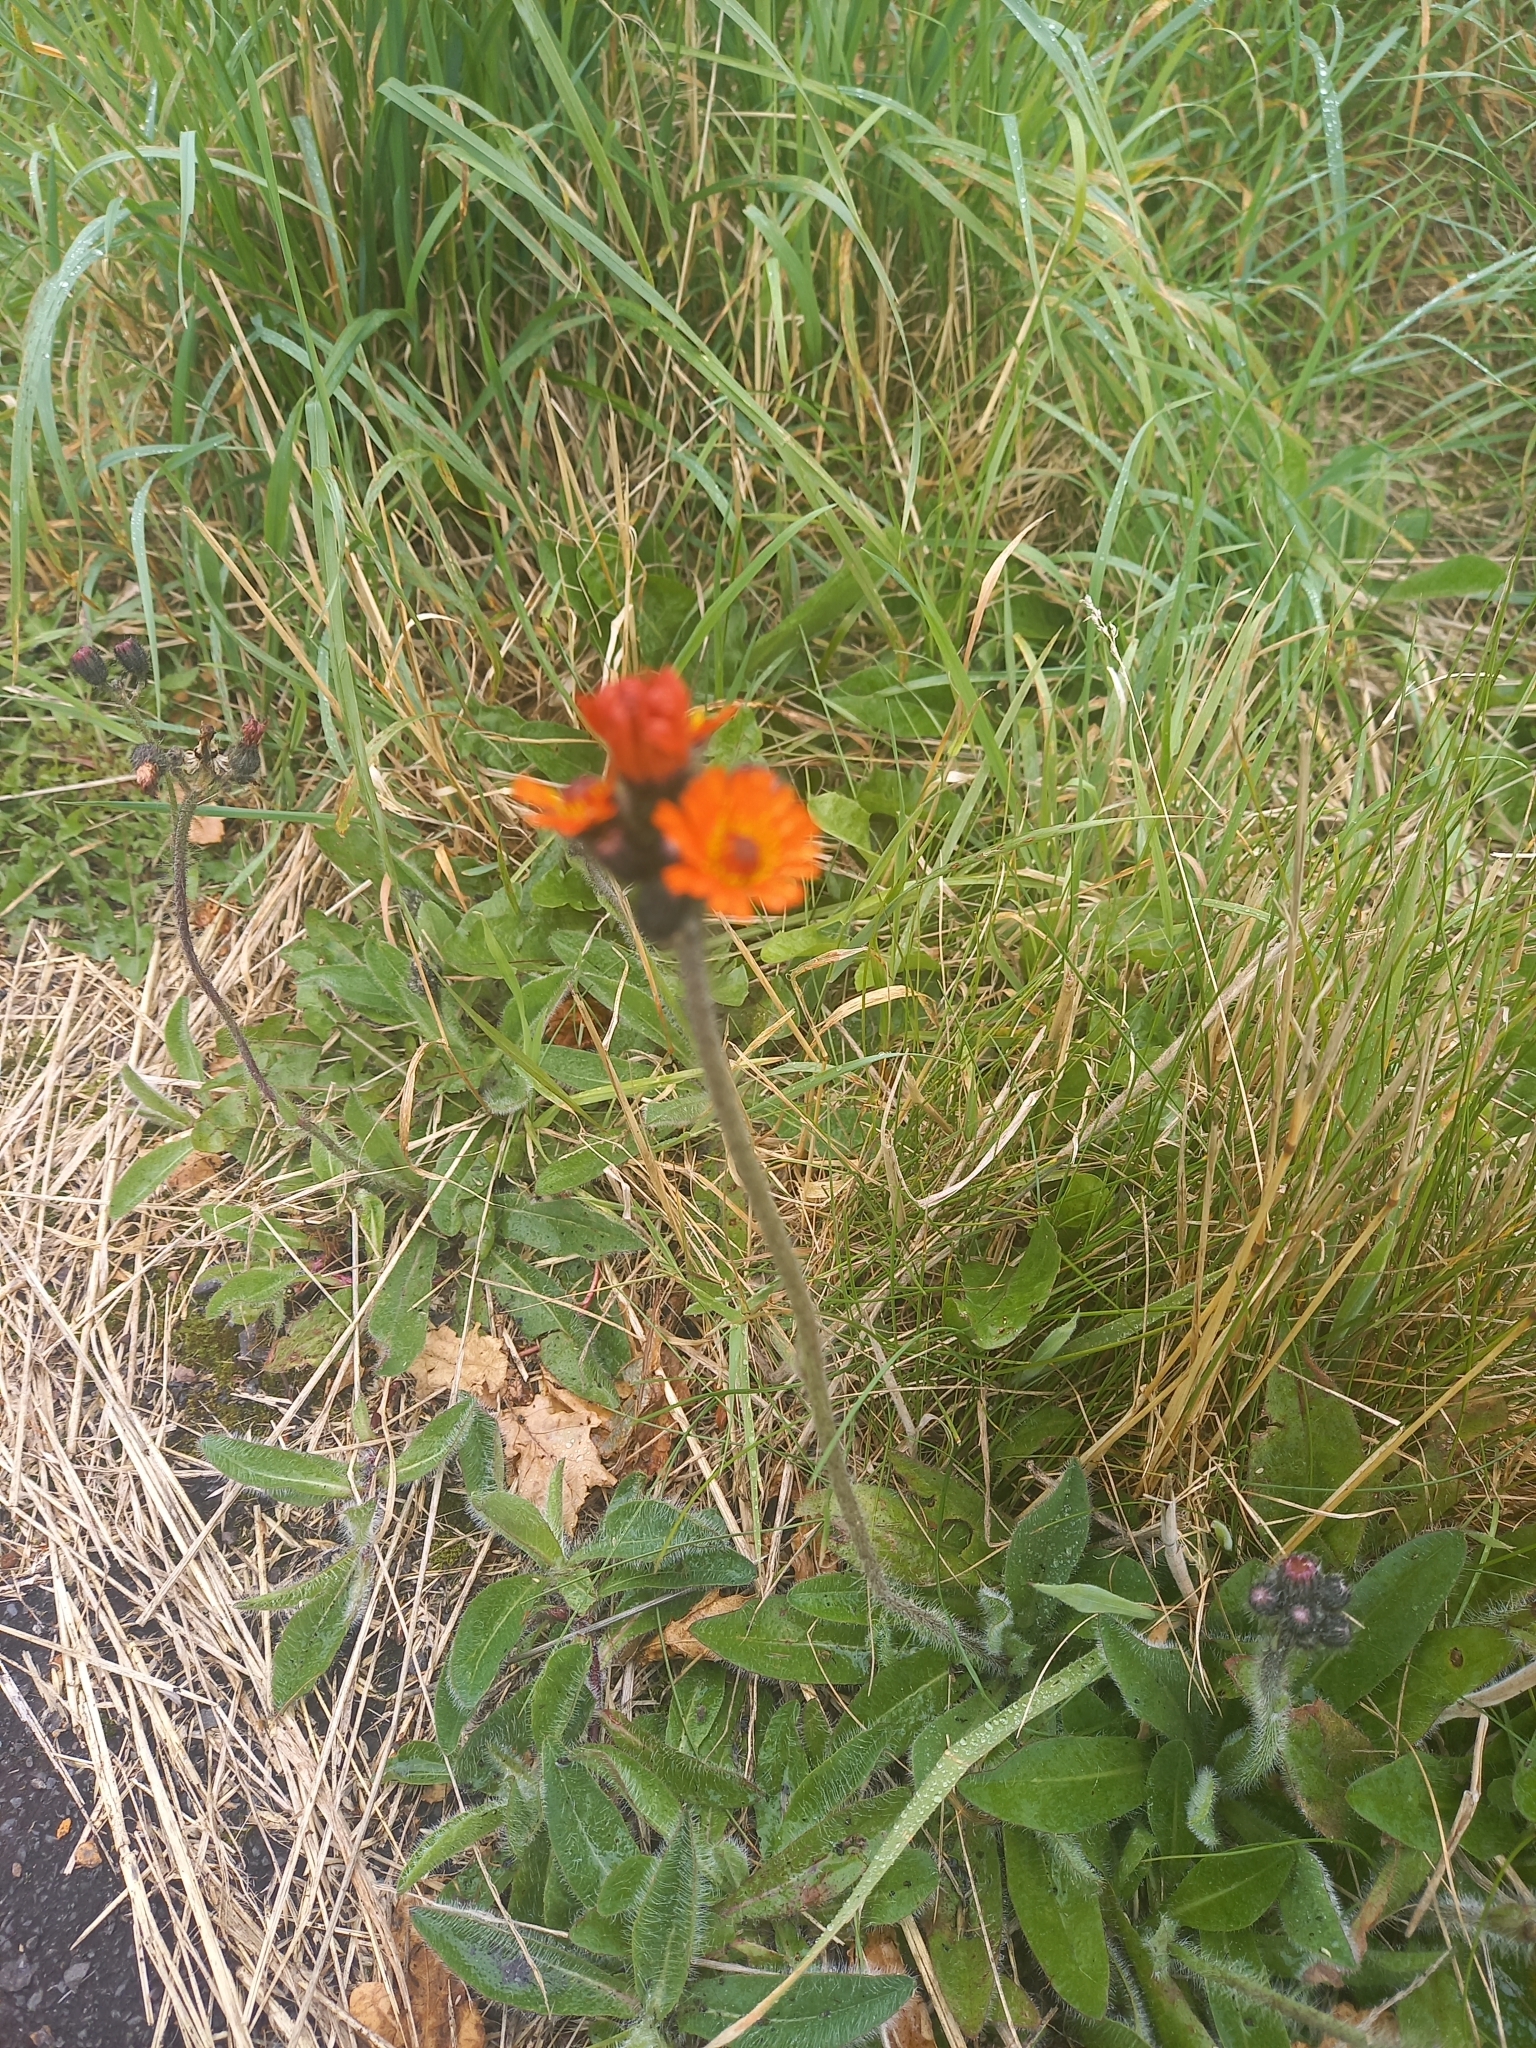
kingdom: Plantae
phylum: Tracheophyta
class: Magnoliopsida
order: Asterales
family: Asteraceae
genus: Pilosella
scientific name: Pilosella aurantiaca
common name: Fox-and-cubs
